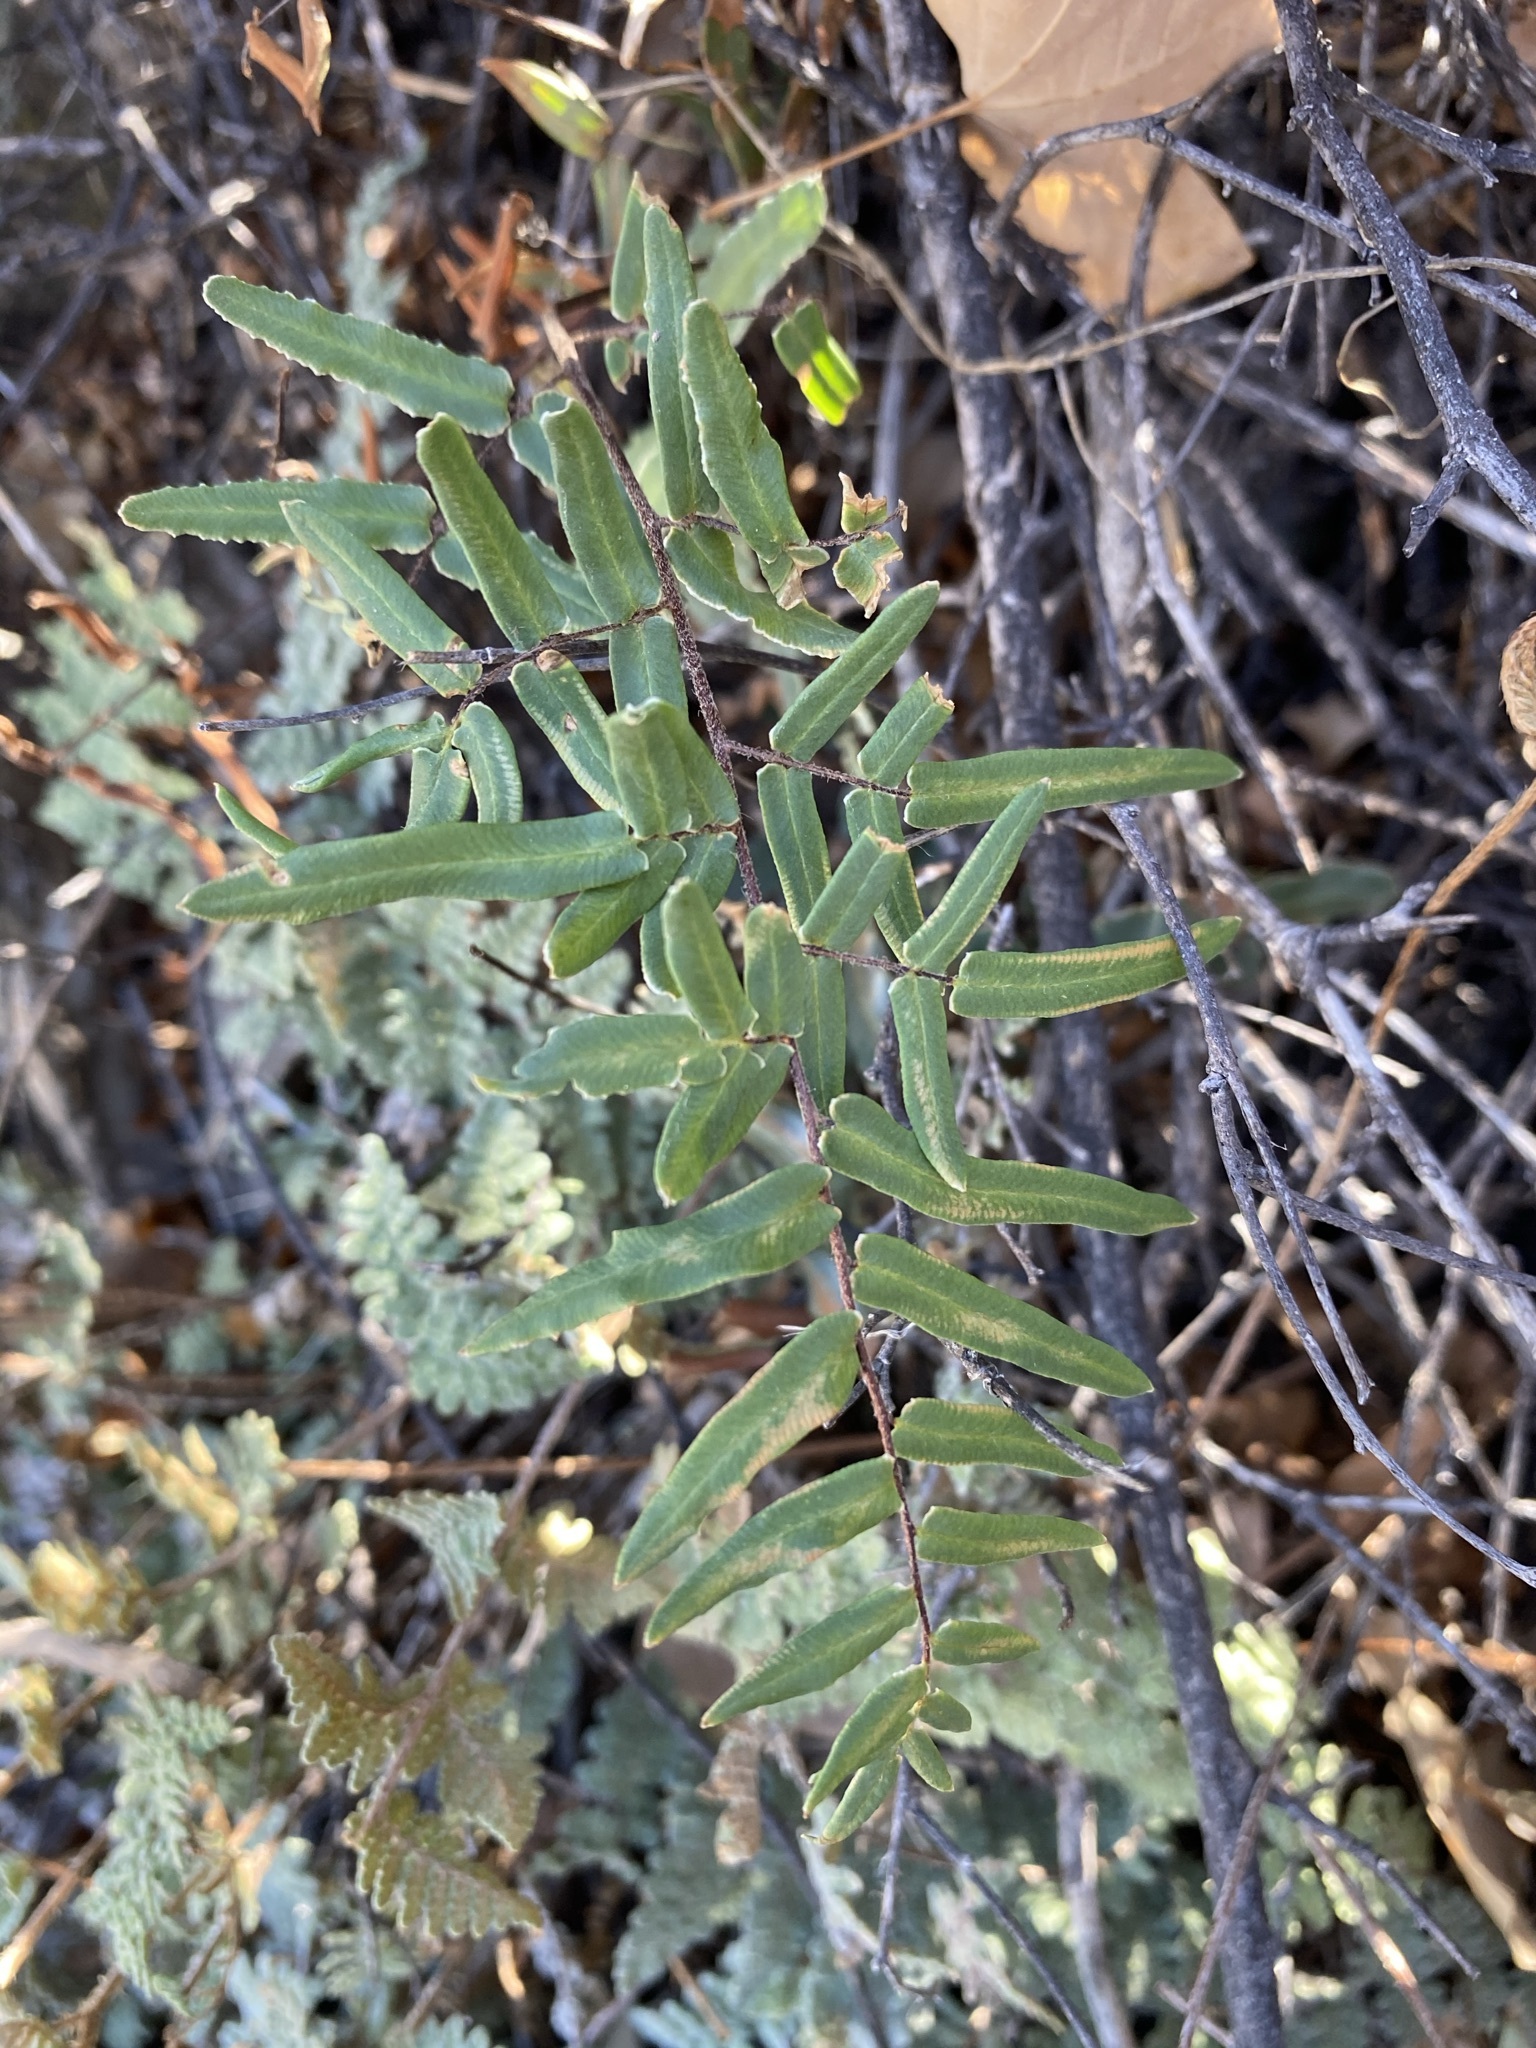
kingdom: Plantae
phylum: Tracheophyta
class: Polypodiopsida
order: Polypodiales
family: Pteridaceae
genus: Pellaea
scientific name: Pellaea atropurpurea
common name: Hairy cliffbrake
